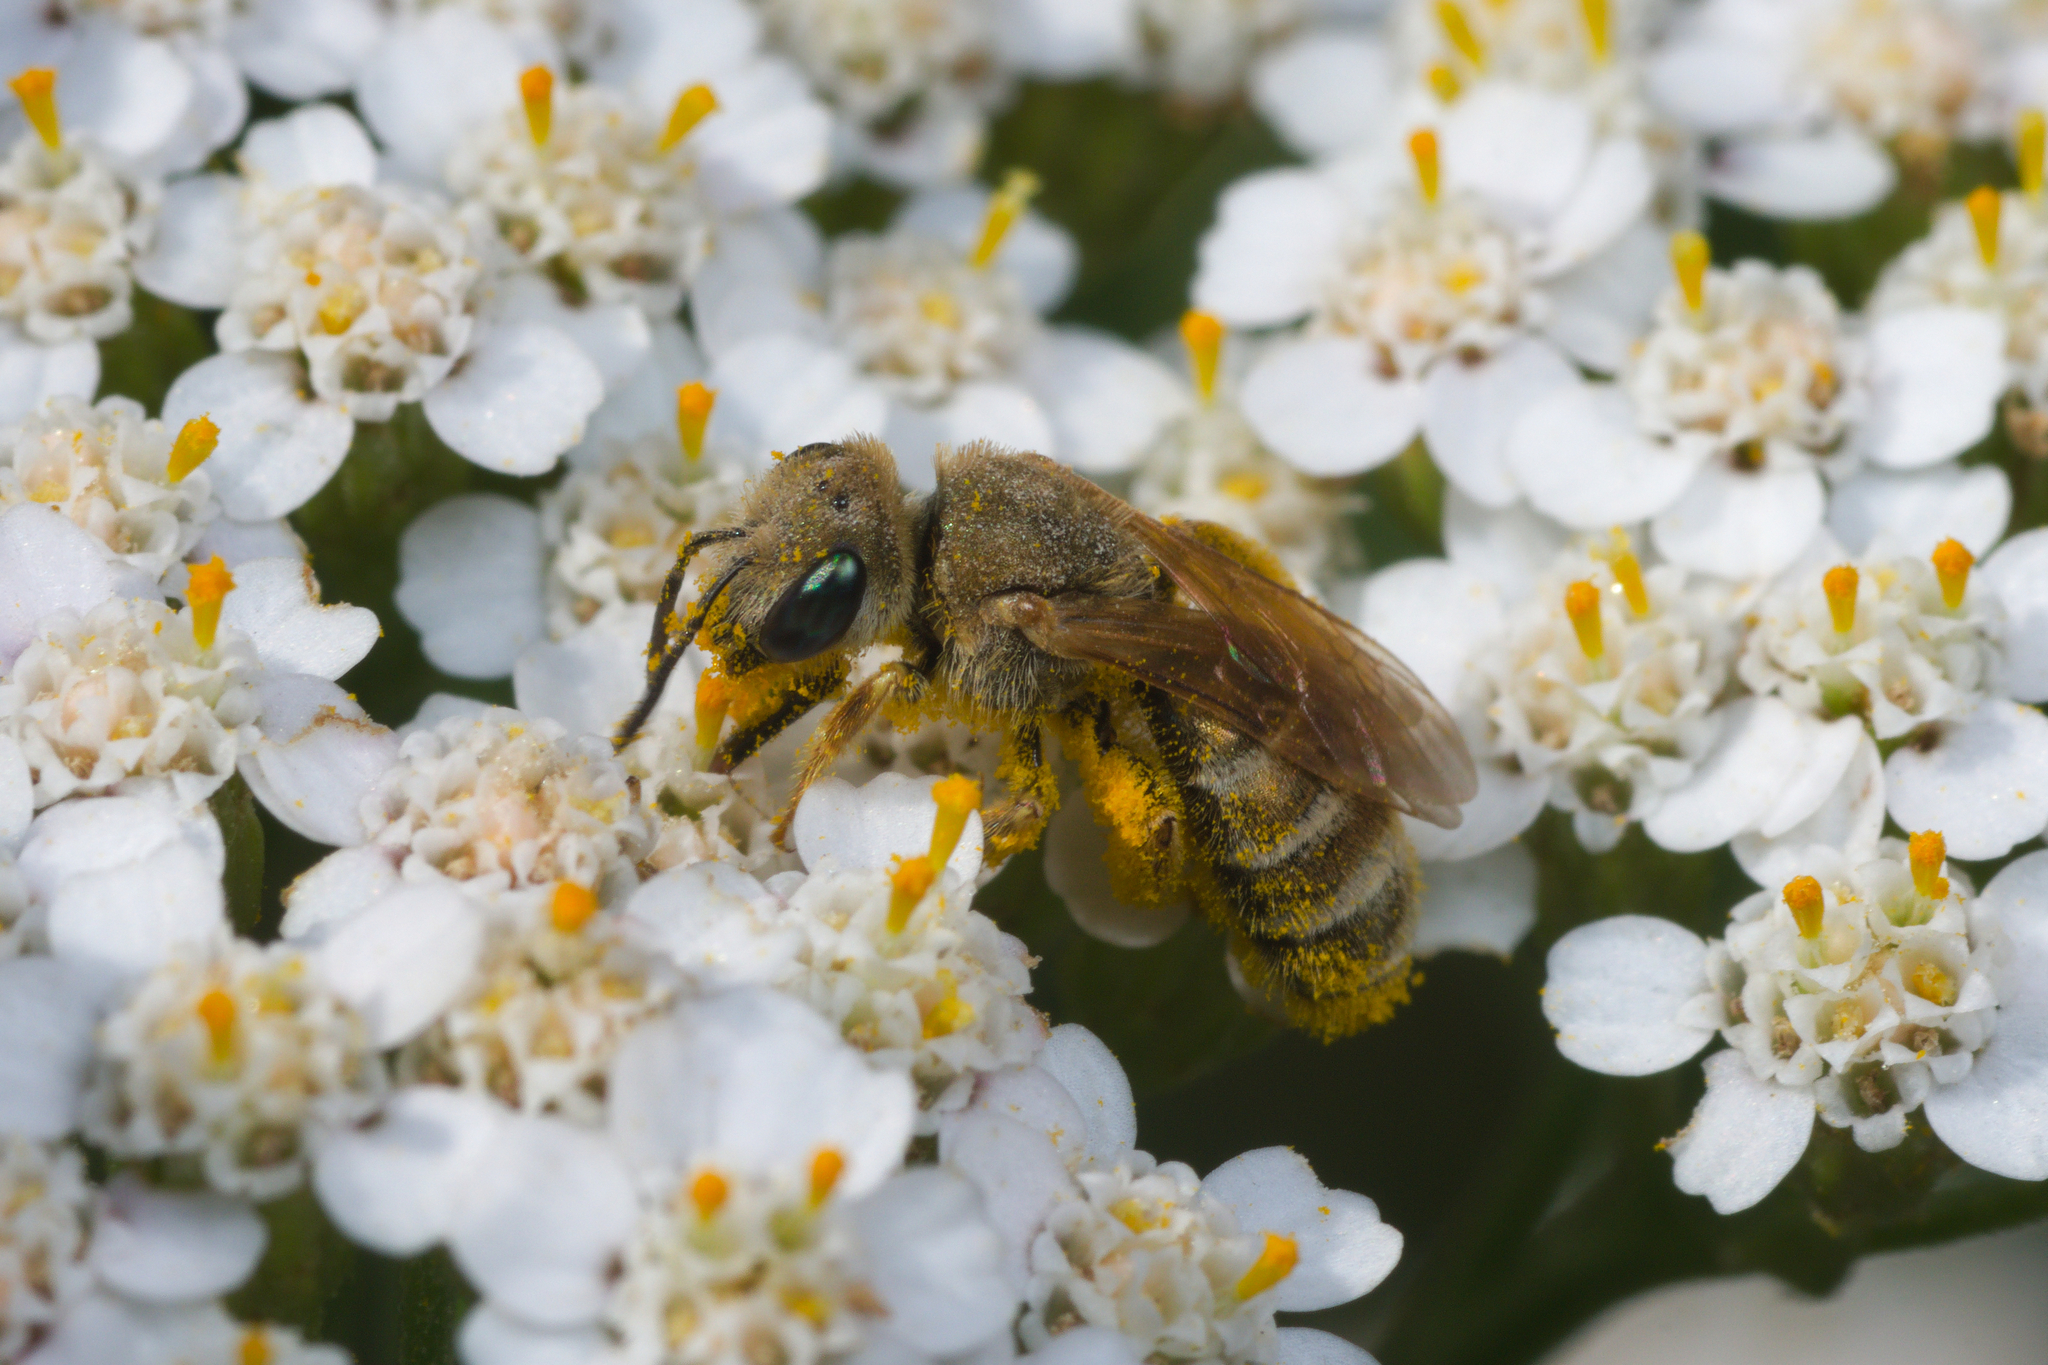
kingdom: Animalia
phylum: Arthropoda
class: Insecta
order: Hymenoptera
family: Halictidae
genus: Halictus
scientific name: Halictus subauratus
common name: Golden furrow bee
